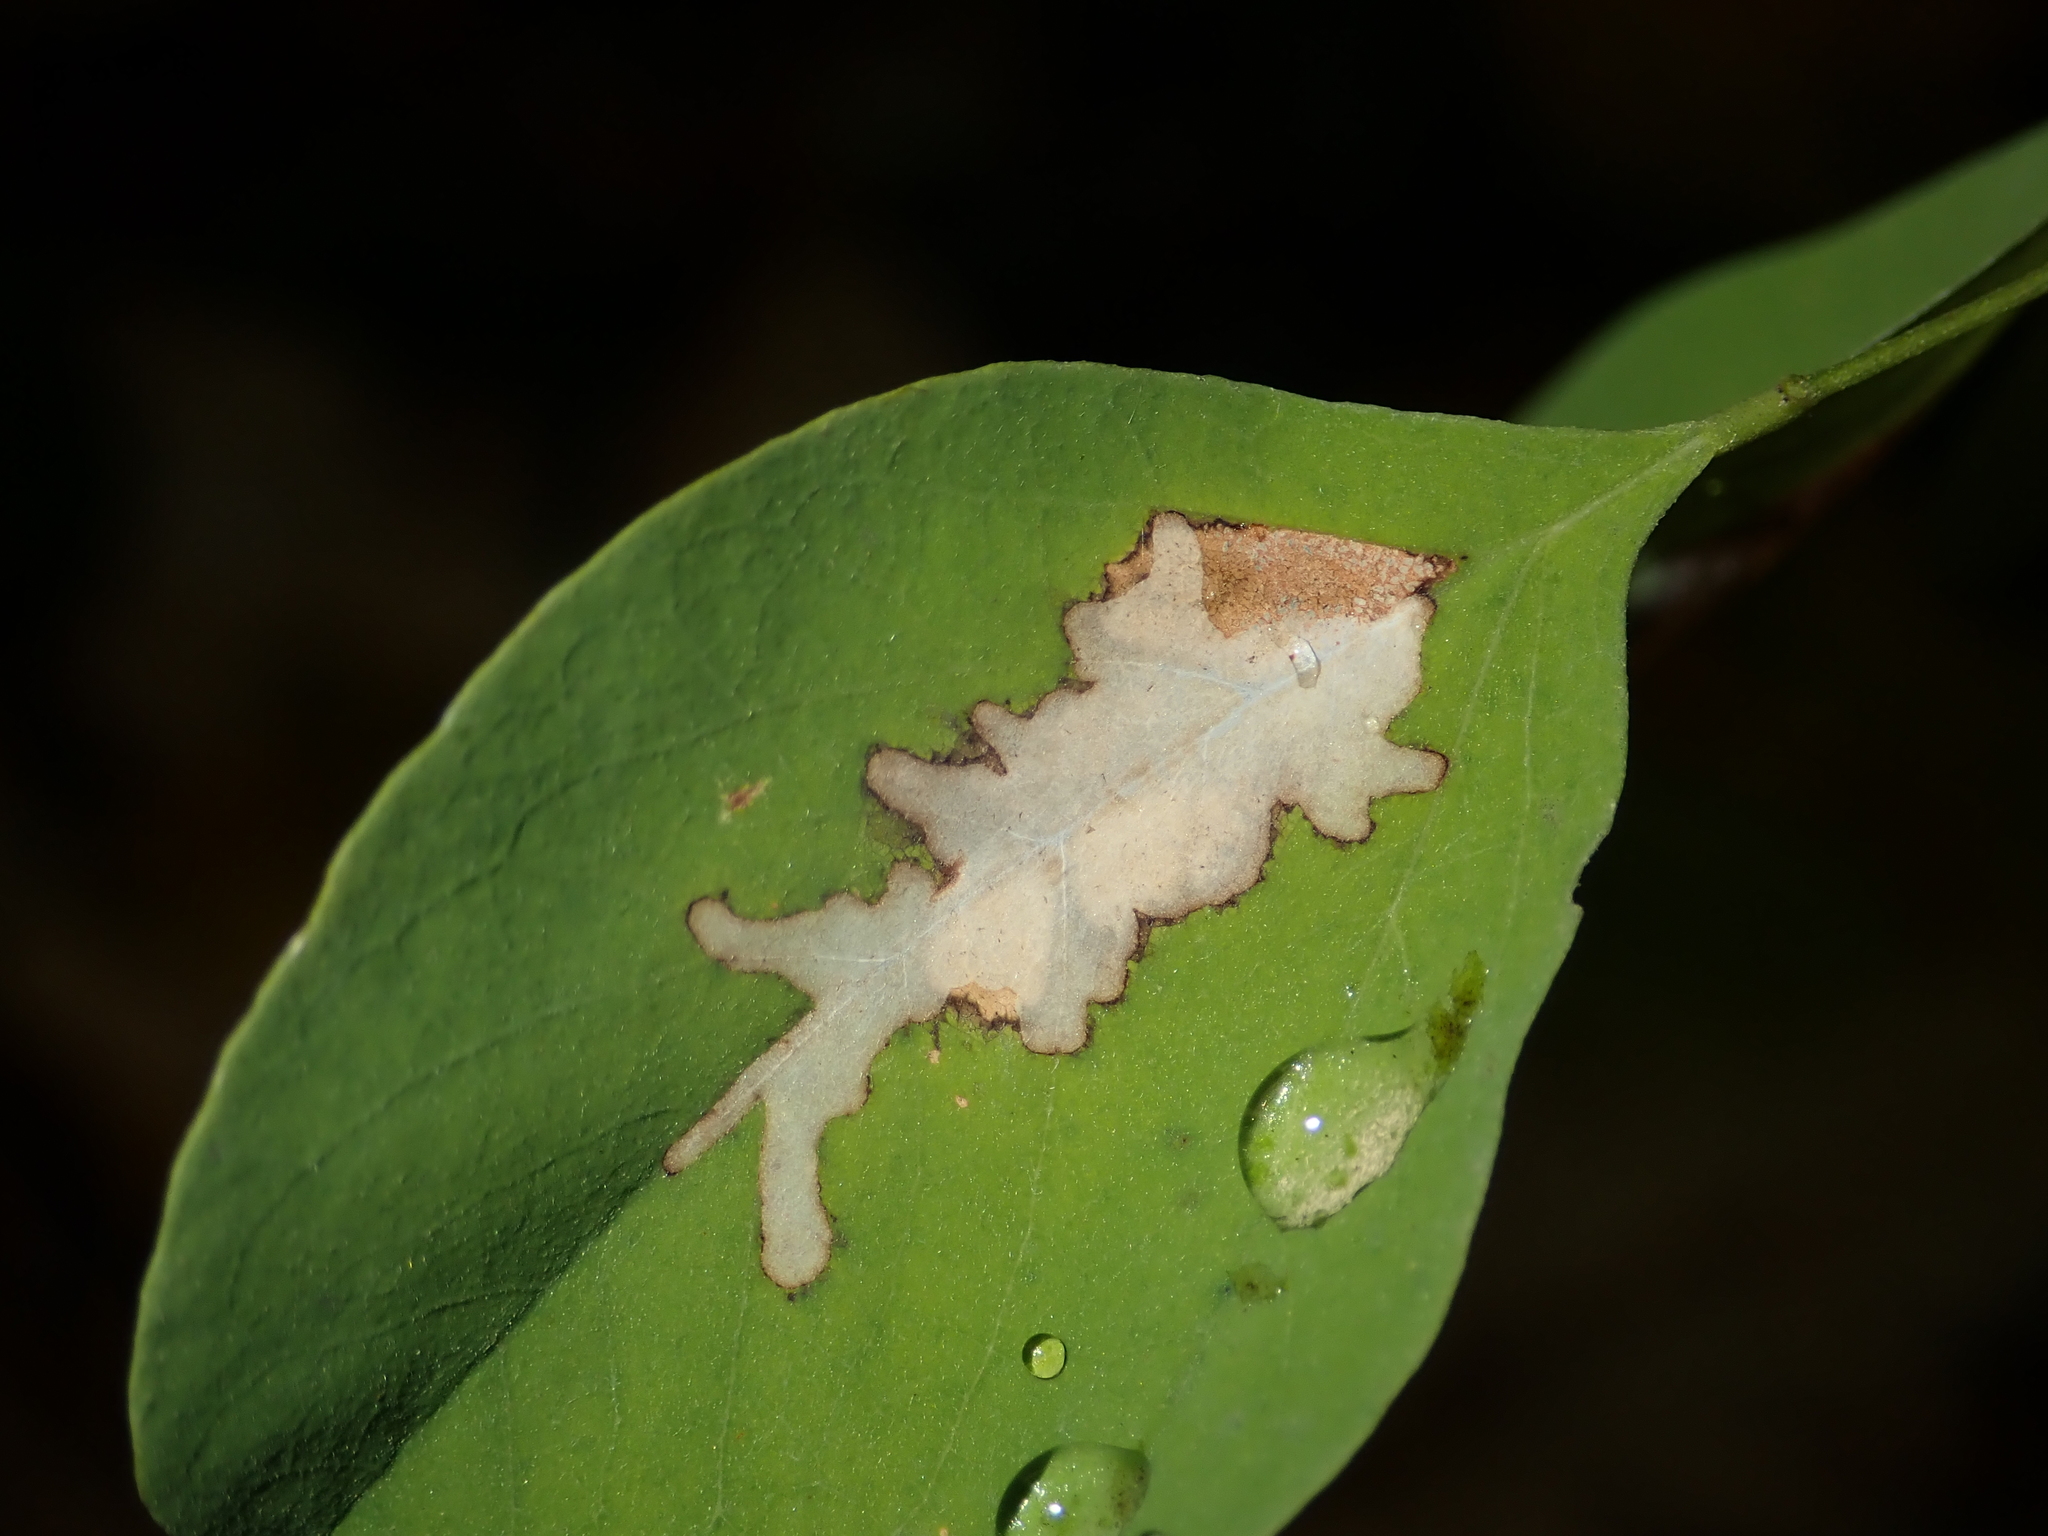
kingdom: Animalia
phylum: Arthropoda
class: Insecta
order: Lepidoptera
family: Gracillariidae
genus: Parectopa
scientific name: Parectopa robiniella
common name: Locust digitate leafminer
